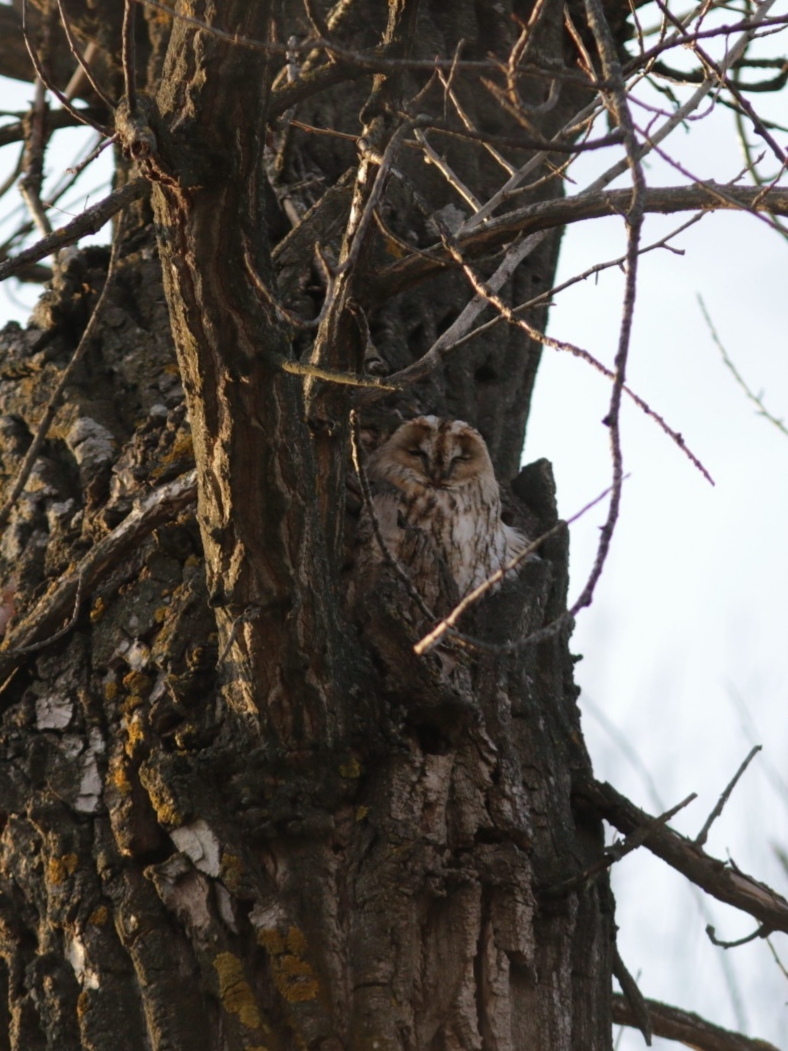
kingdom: Animalia
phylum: Chordata
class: Aves
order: Strigiformes
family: Strigidae
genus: Strix
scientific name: Strix aluco
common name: Tawny owl
